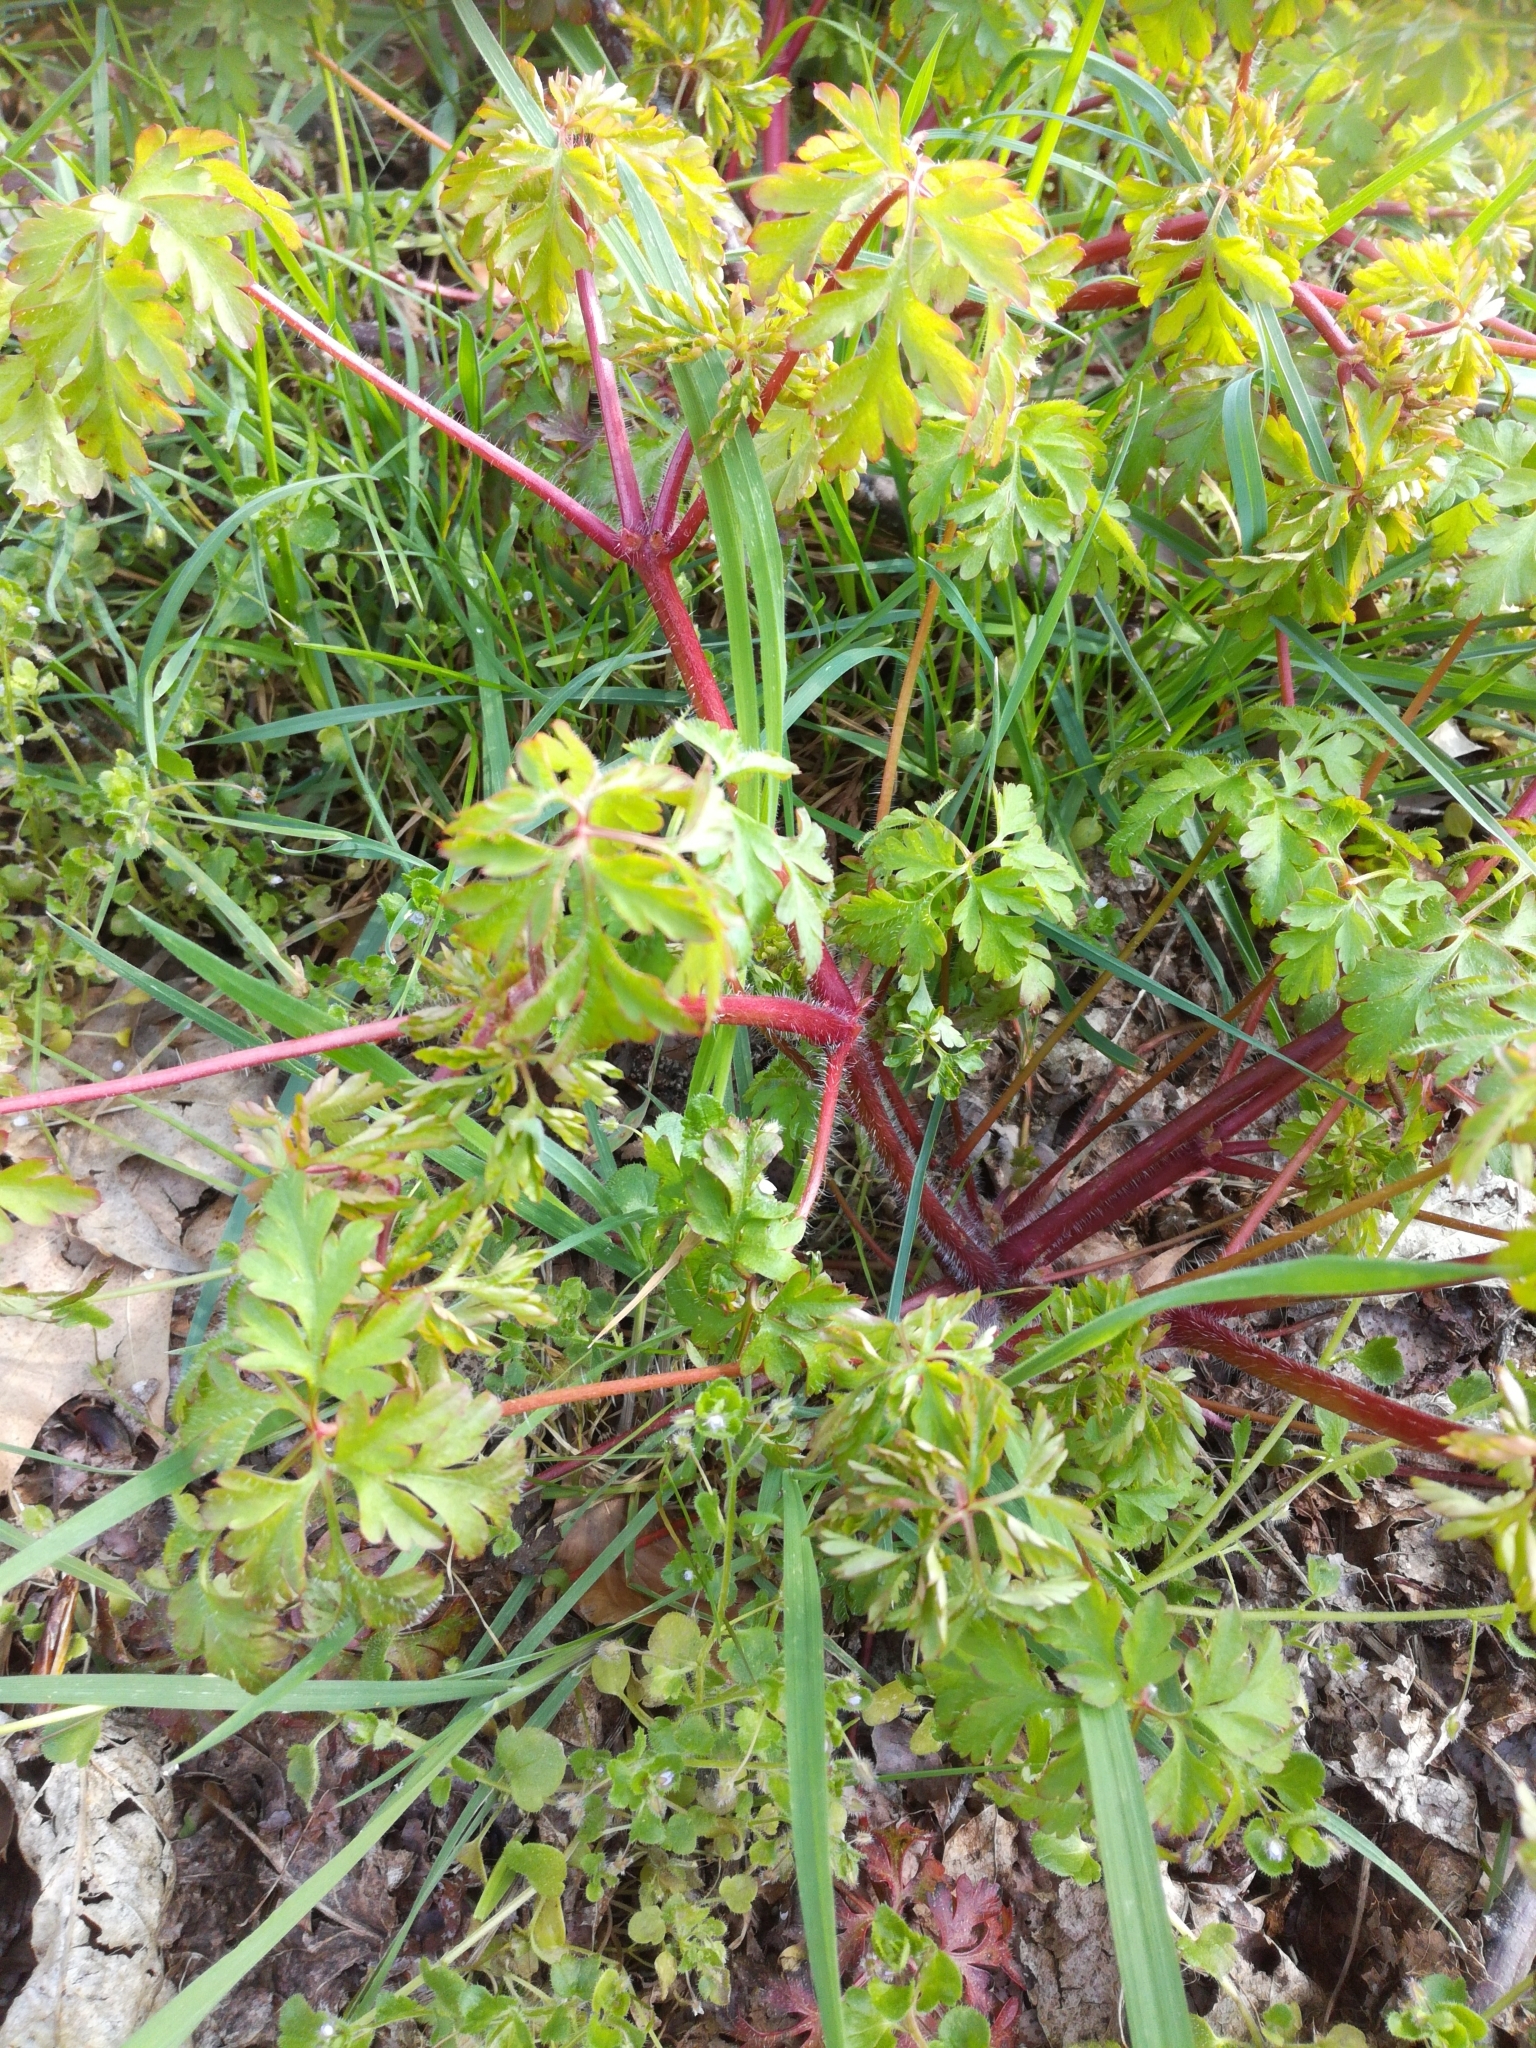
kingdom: Plantae
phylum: Tracheophyta
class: Magnoliopsida
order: Geraniales
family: Geraniaceae
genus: Geranium
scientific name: Geranium robertianum
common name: Herb-robert
